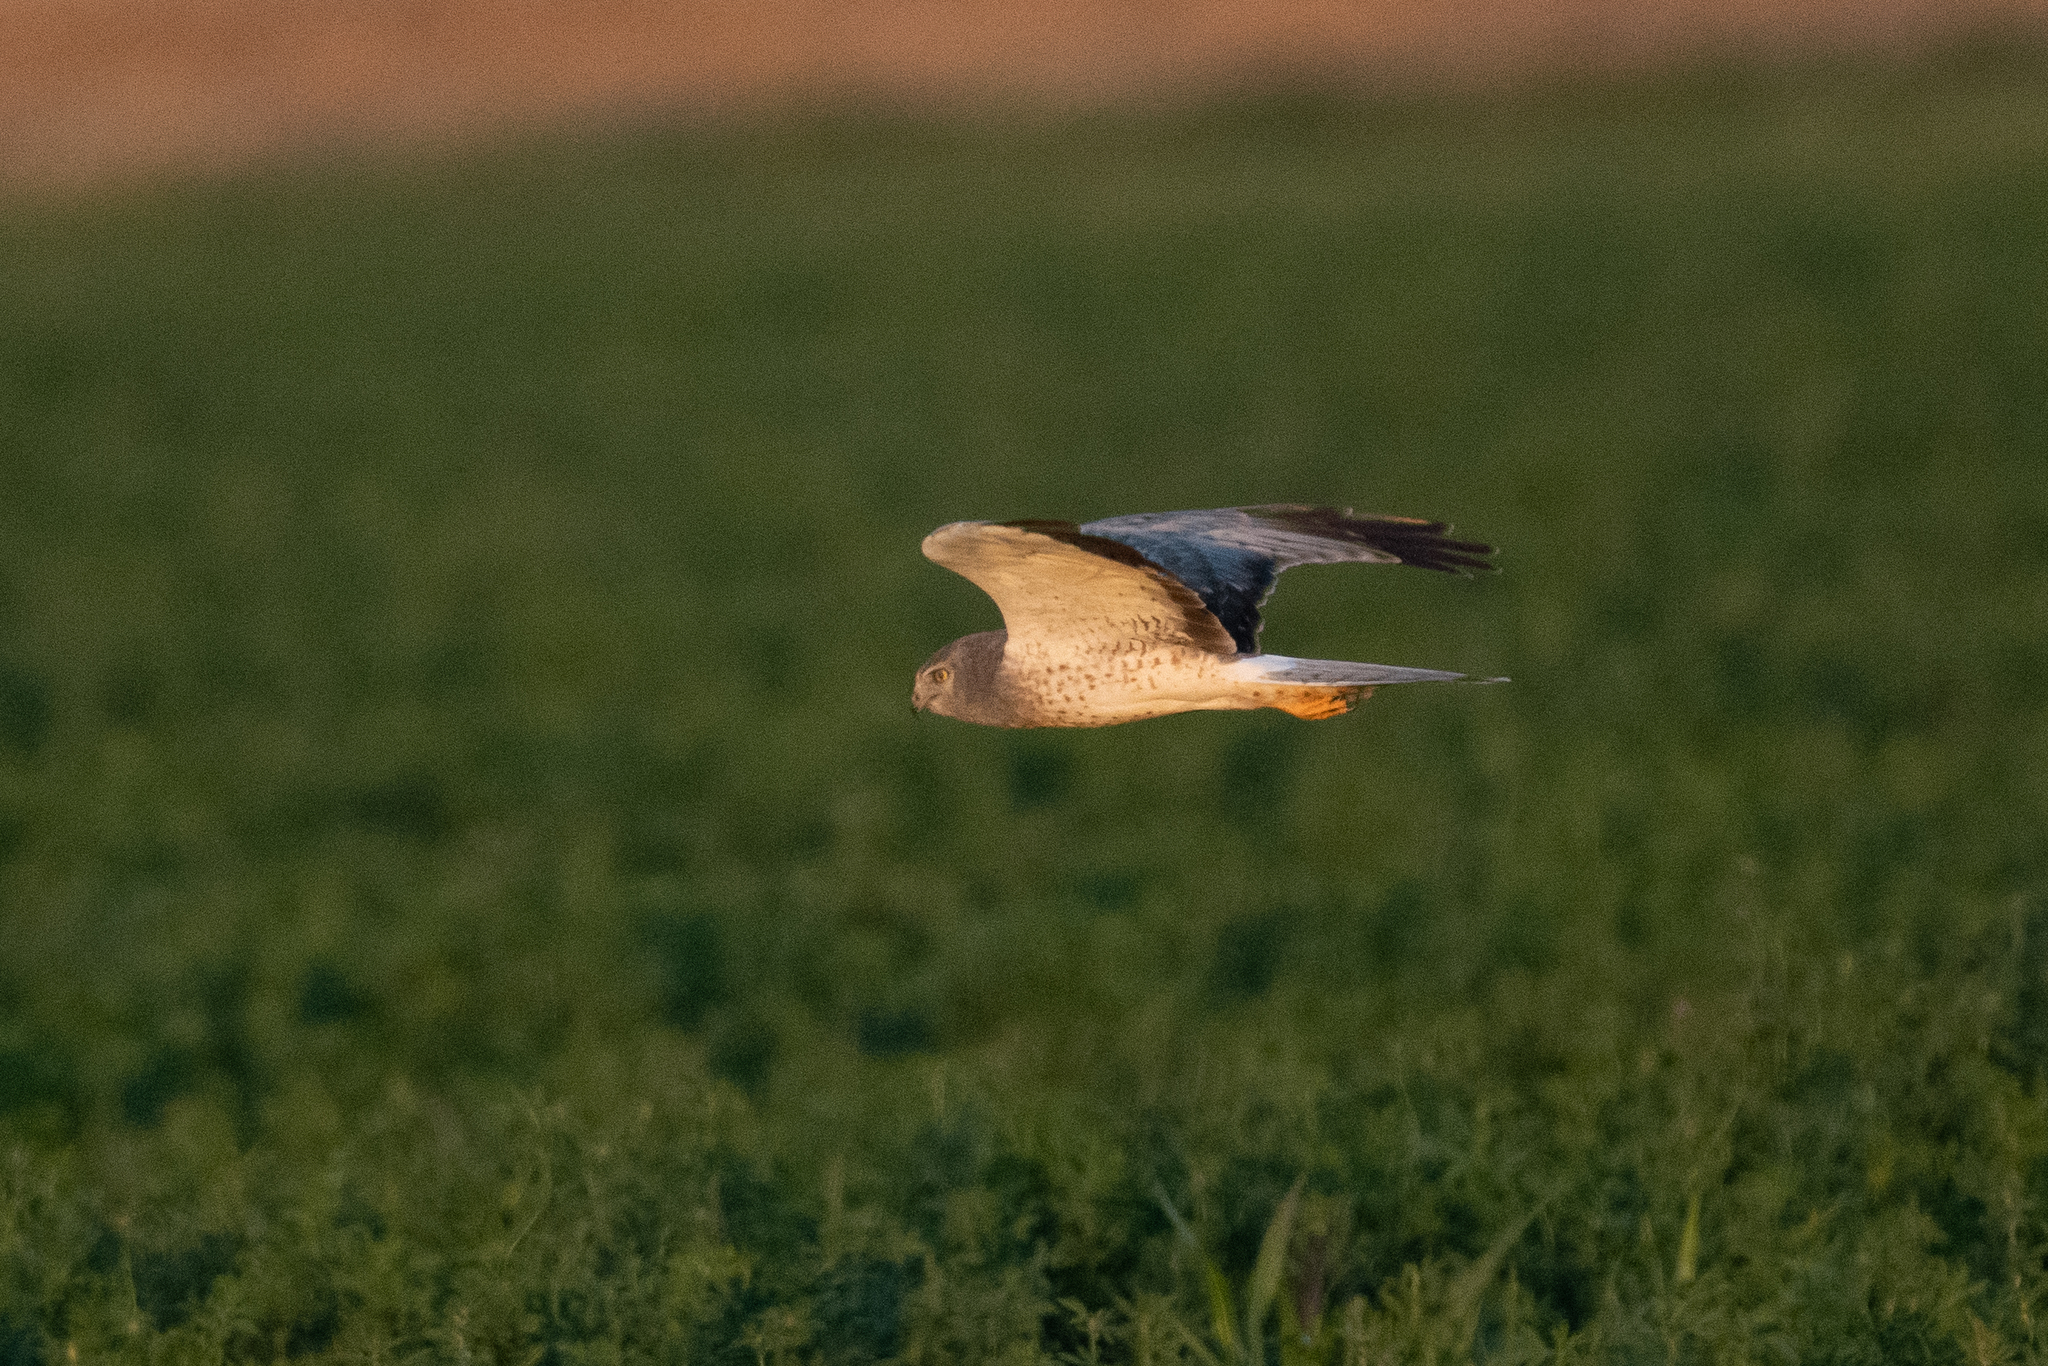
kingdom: Animalia
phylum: Chordata
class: Aves
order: Accipitriformes
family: Accipitridae
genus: Circus
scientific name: Circus cyaneus
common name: Hen harrier
